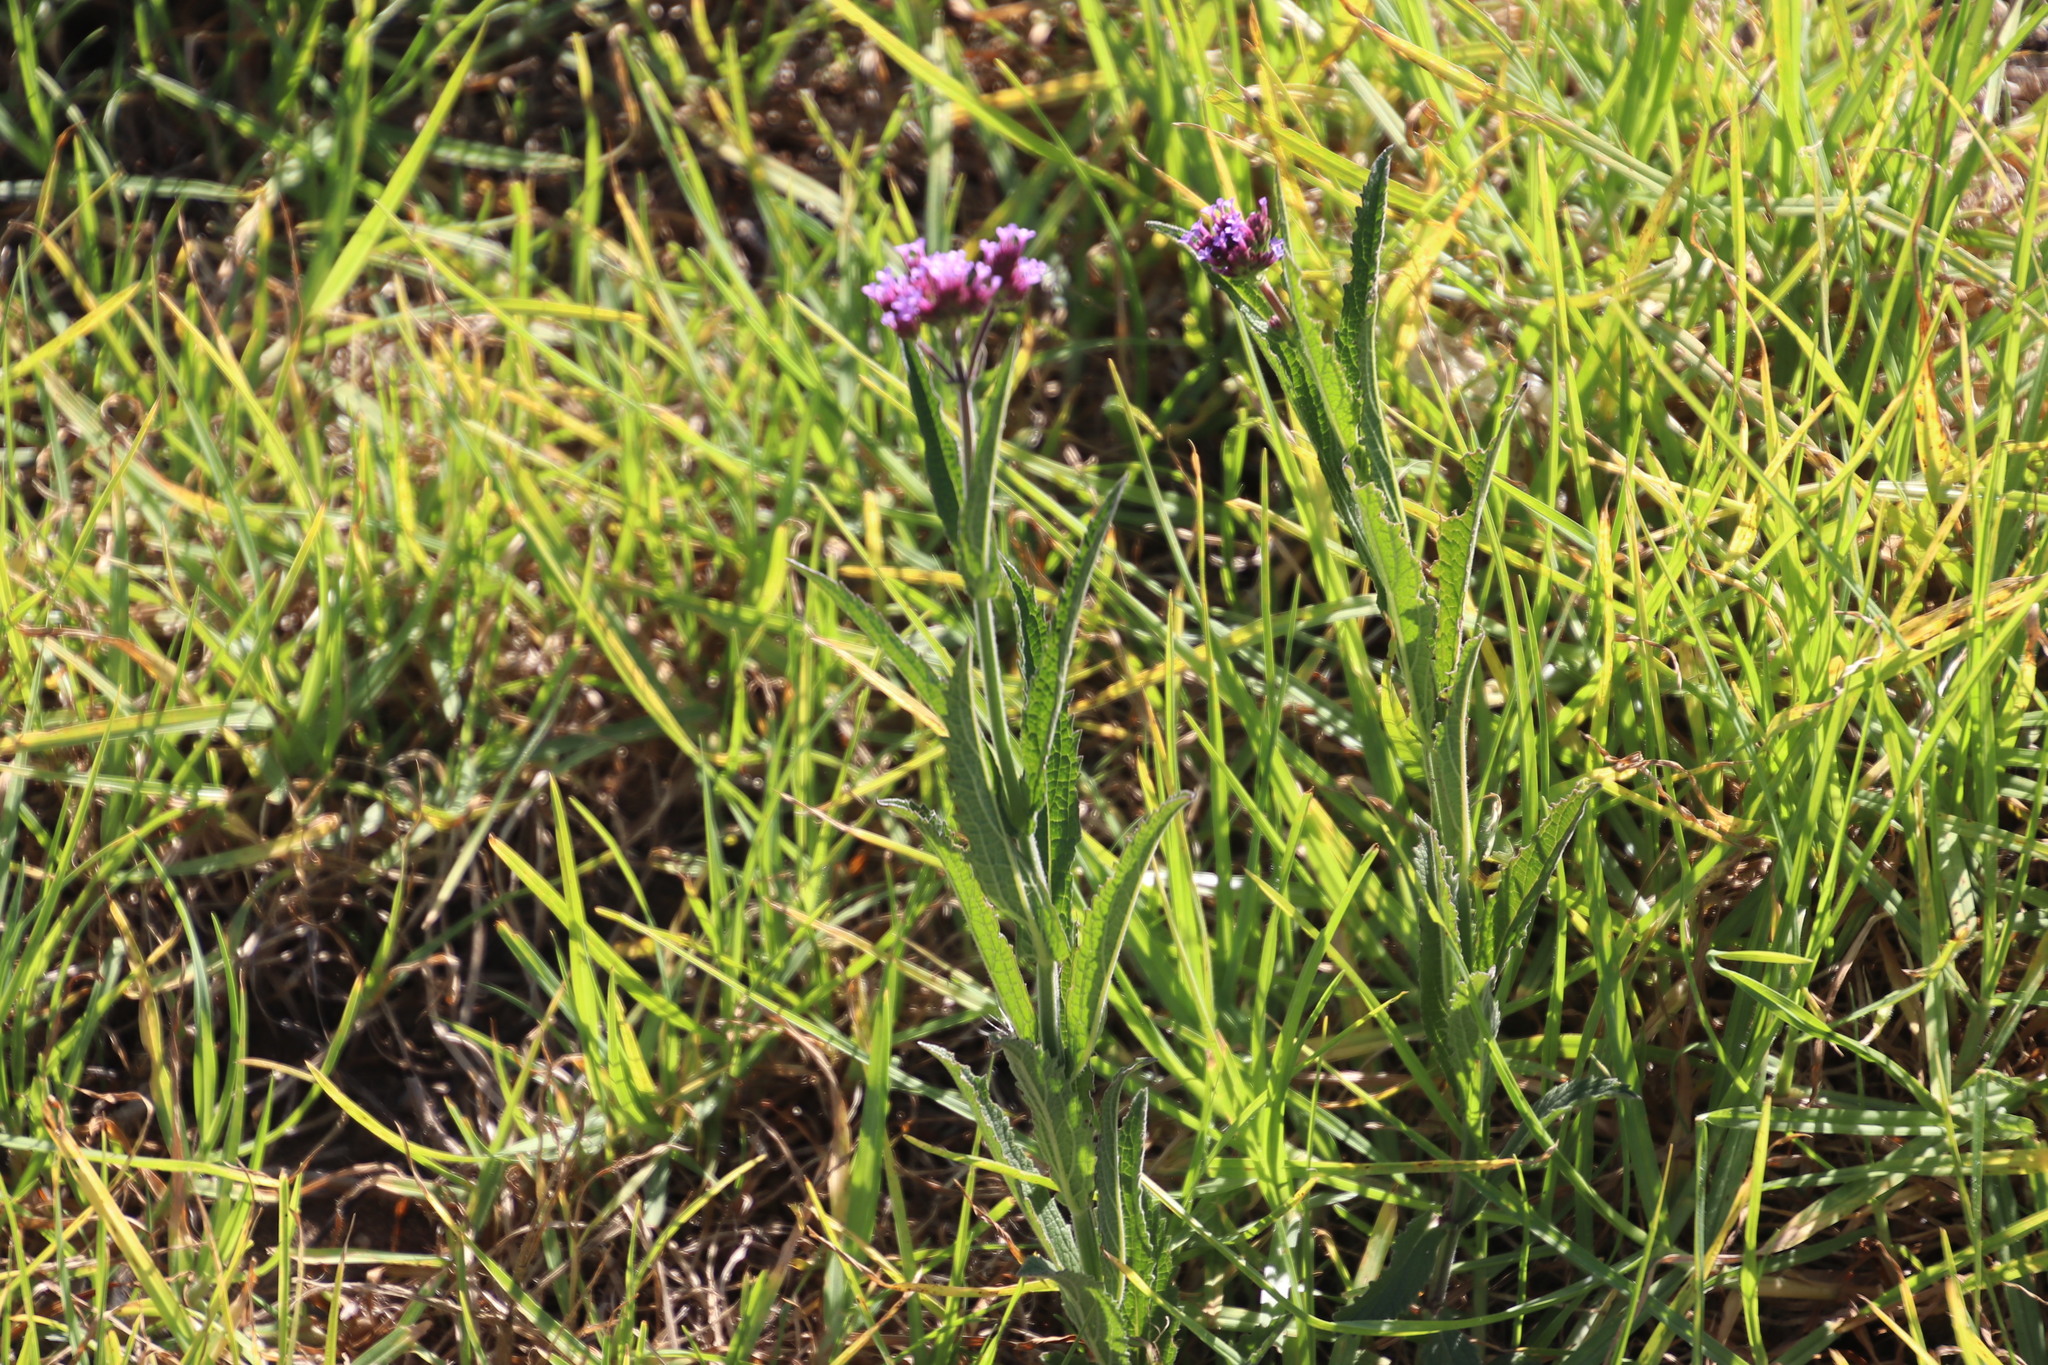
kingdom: Plantae
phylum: Tracheophyta
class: Magnoliopsida
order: Lamiales
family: Verbenaceae
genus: Verbena
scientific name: Verbena bonariensis
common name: Purpletop vervain
